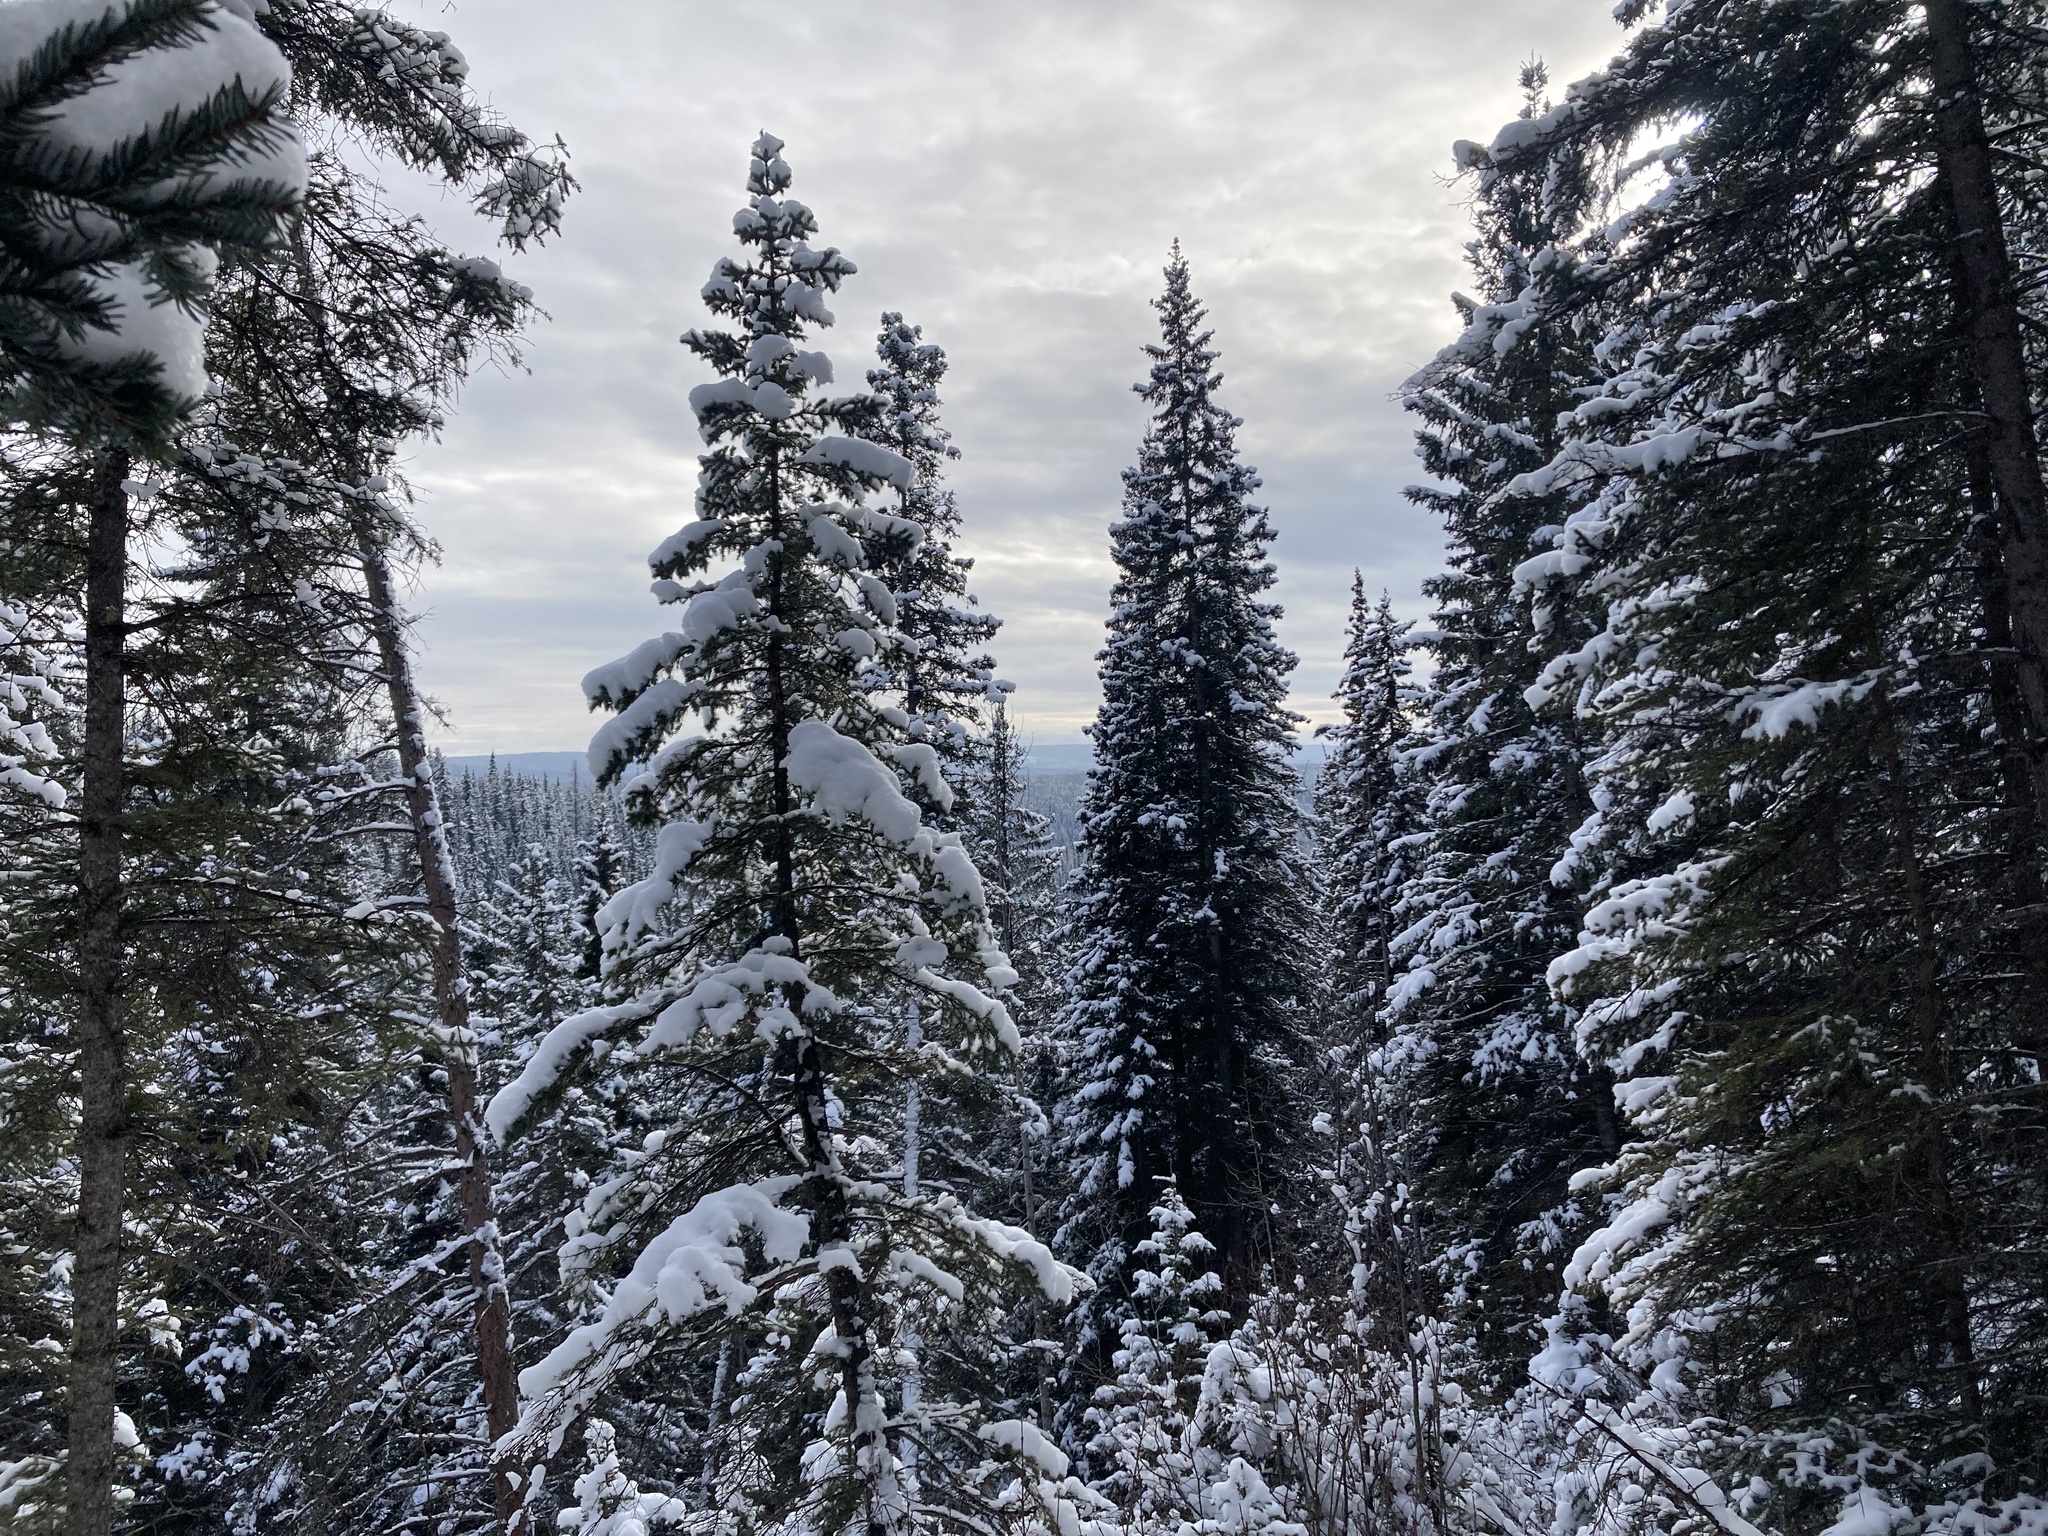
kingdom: Plantae
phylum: Tracheophyta
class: Pinopsida
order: Pinales
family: Pinaceae
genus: Picea
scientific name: Picea glauca
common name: White spruce
